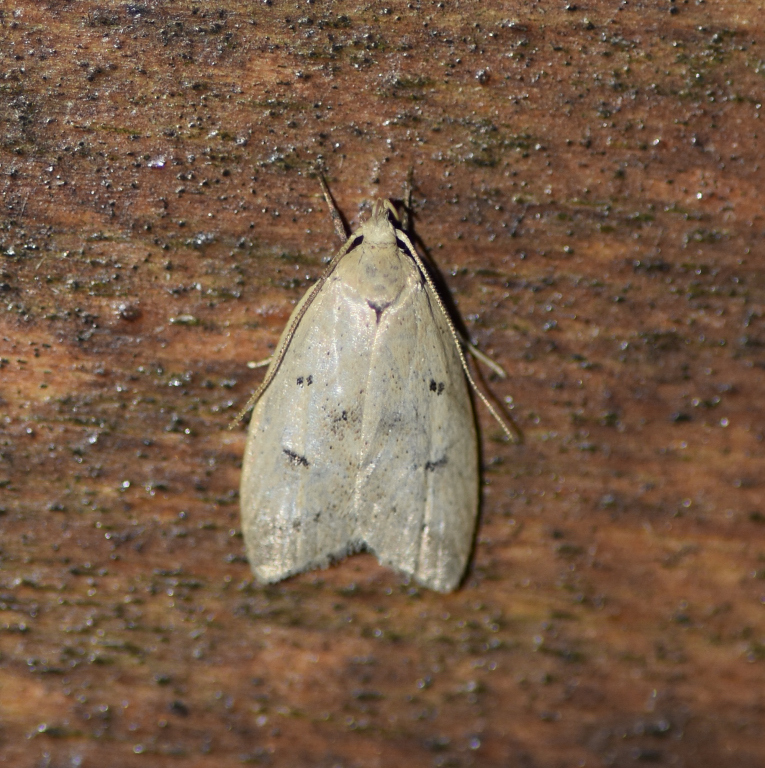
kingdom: Animalia
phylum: Arthropoda
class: Insecta
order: Lepidoptera
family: Peleopodidae
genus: Machimia
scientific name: Machimia tentoriferella
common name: Gold-striped leaftier moth
